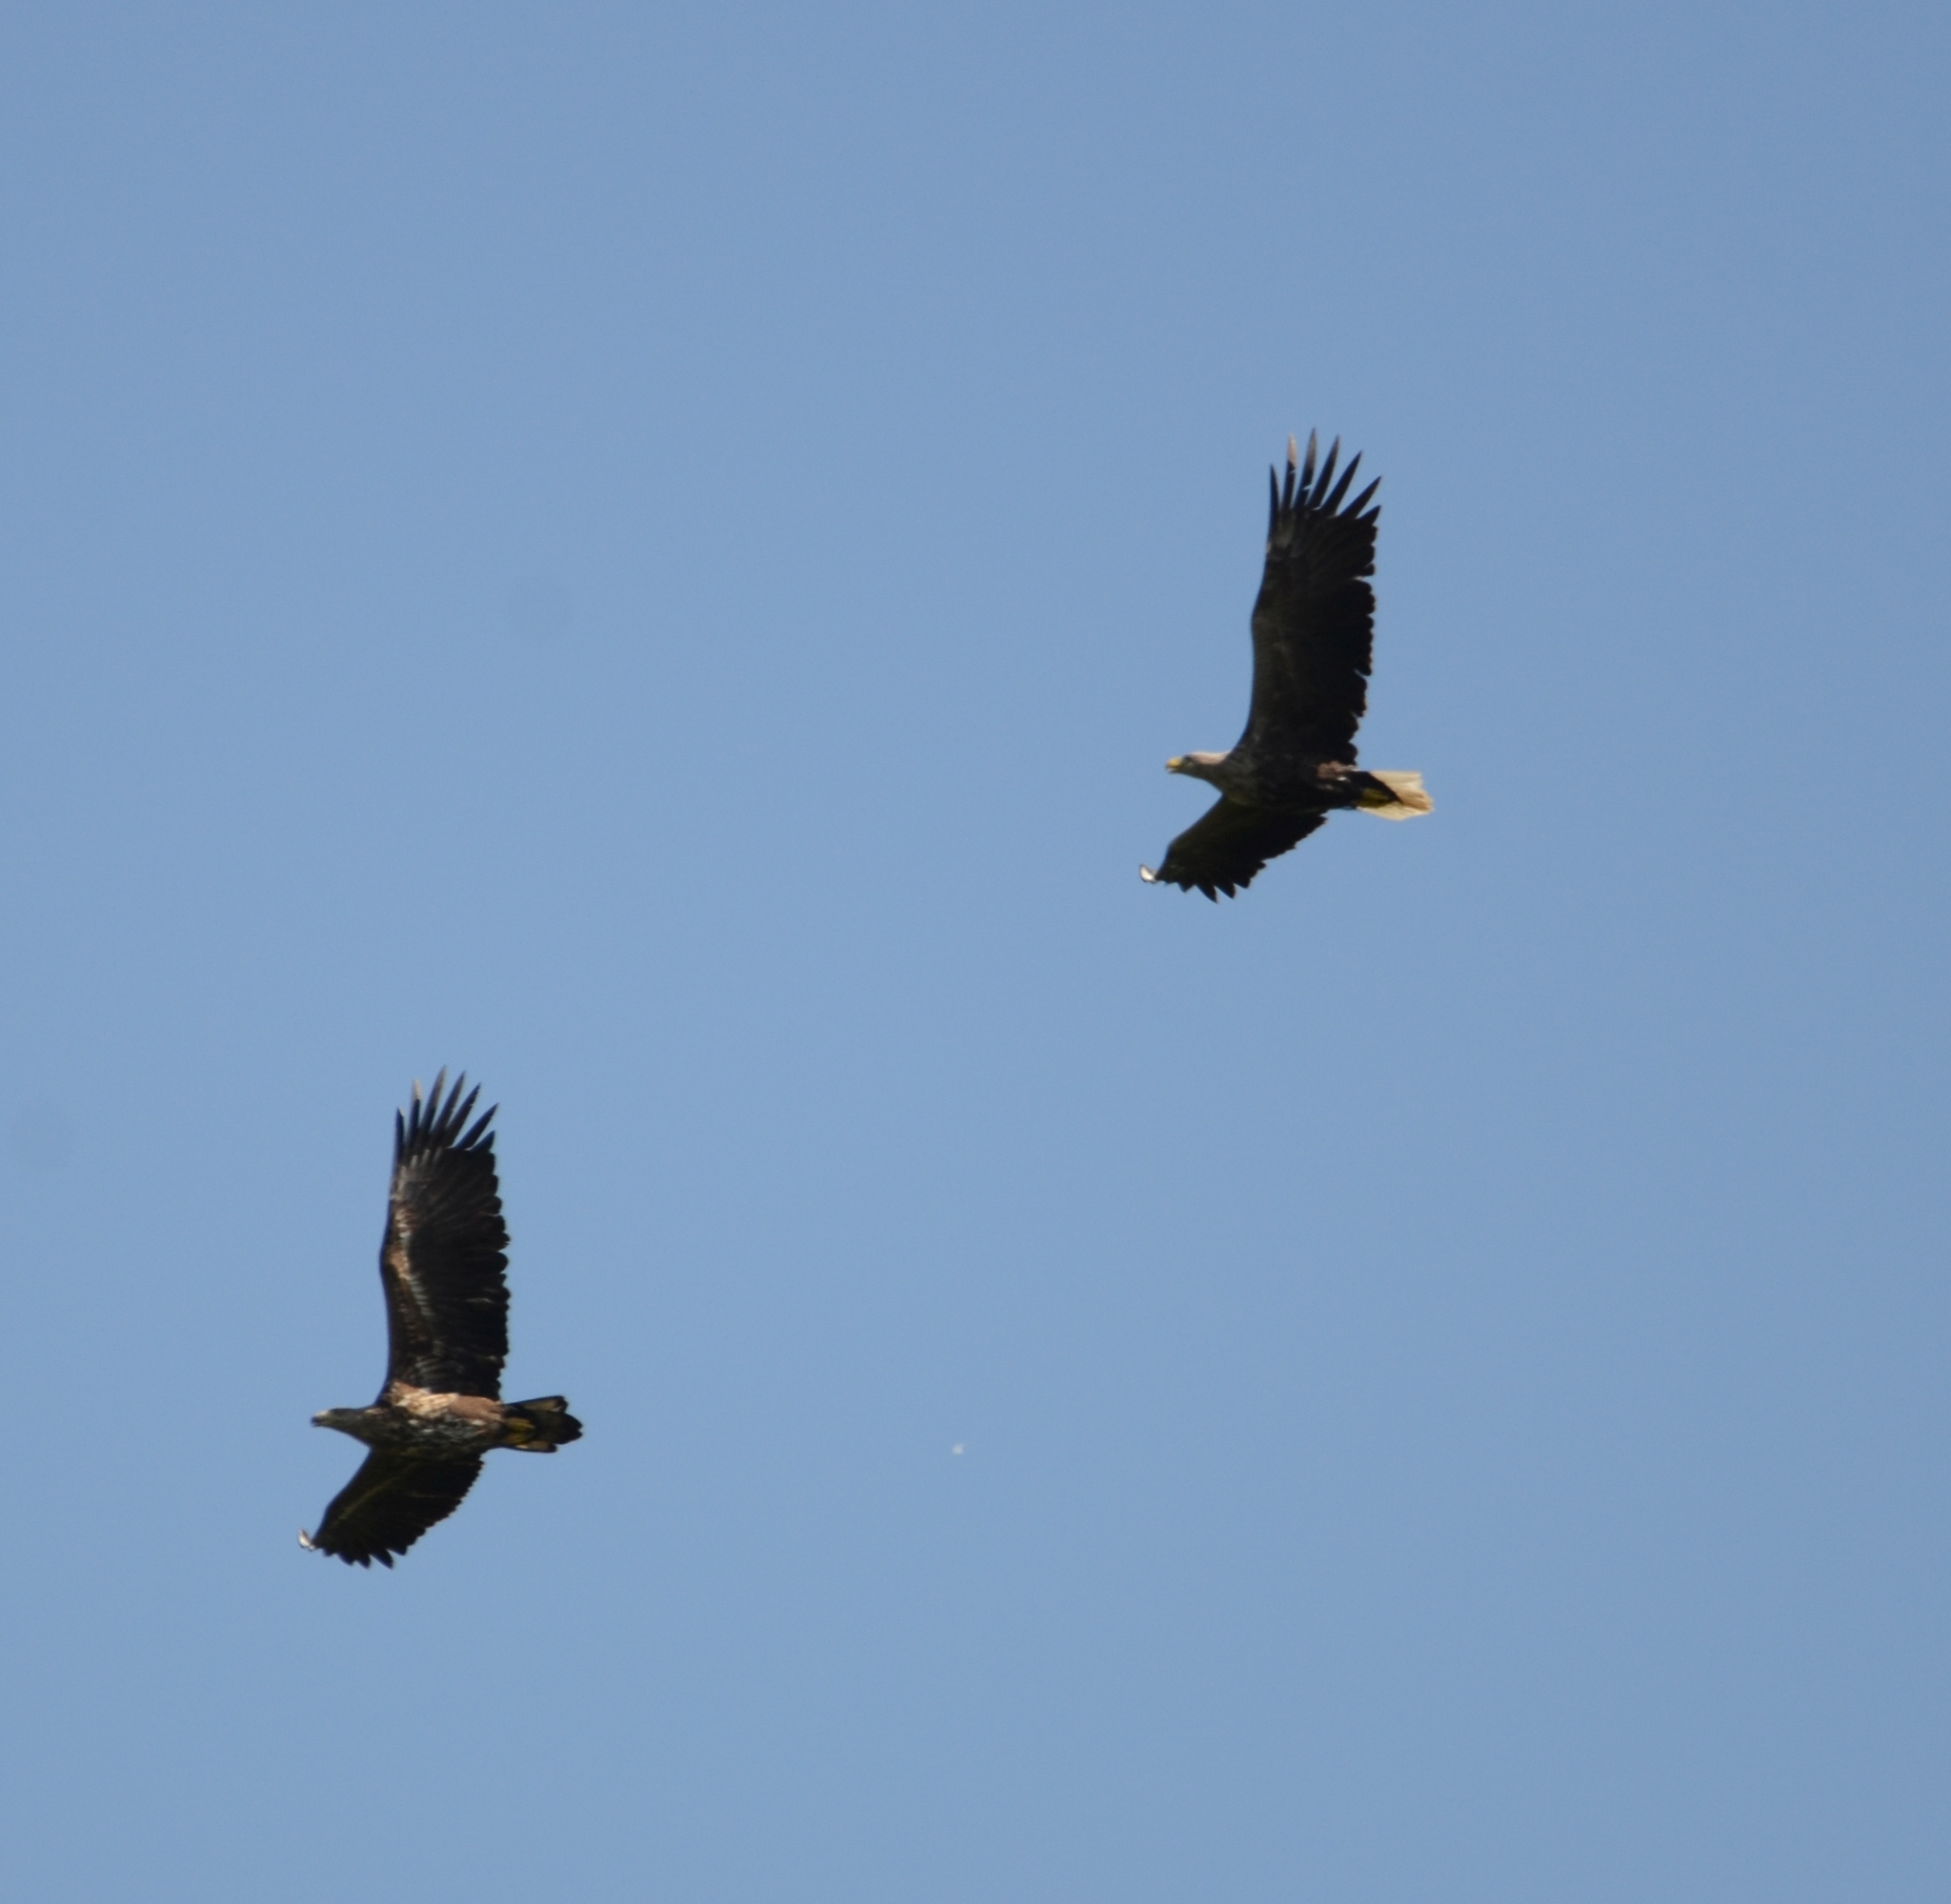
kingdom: Animalia
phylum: Chordata
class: Aves
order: Accipitriformes
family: Accipitridae
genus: Haliaeetus
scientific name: Haliaeetus albicilla
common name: White-tailed eagle
